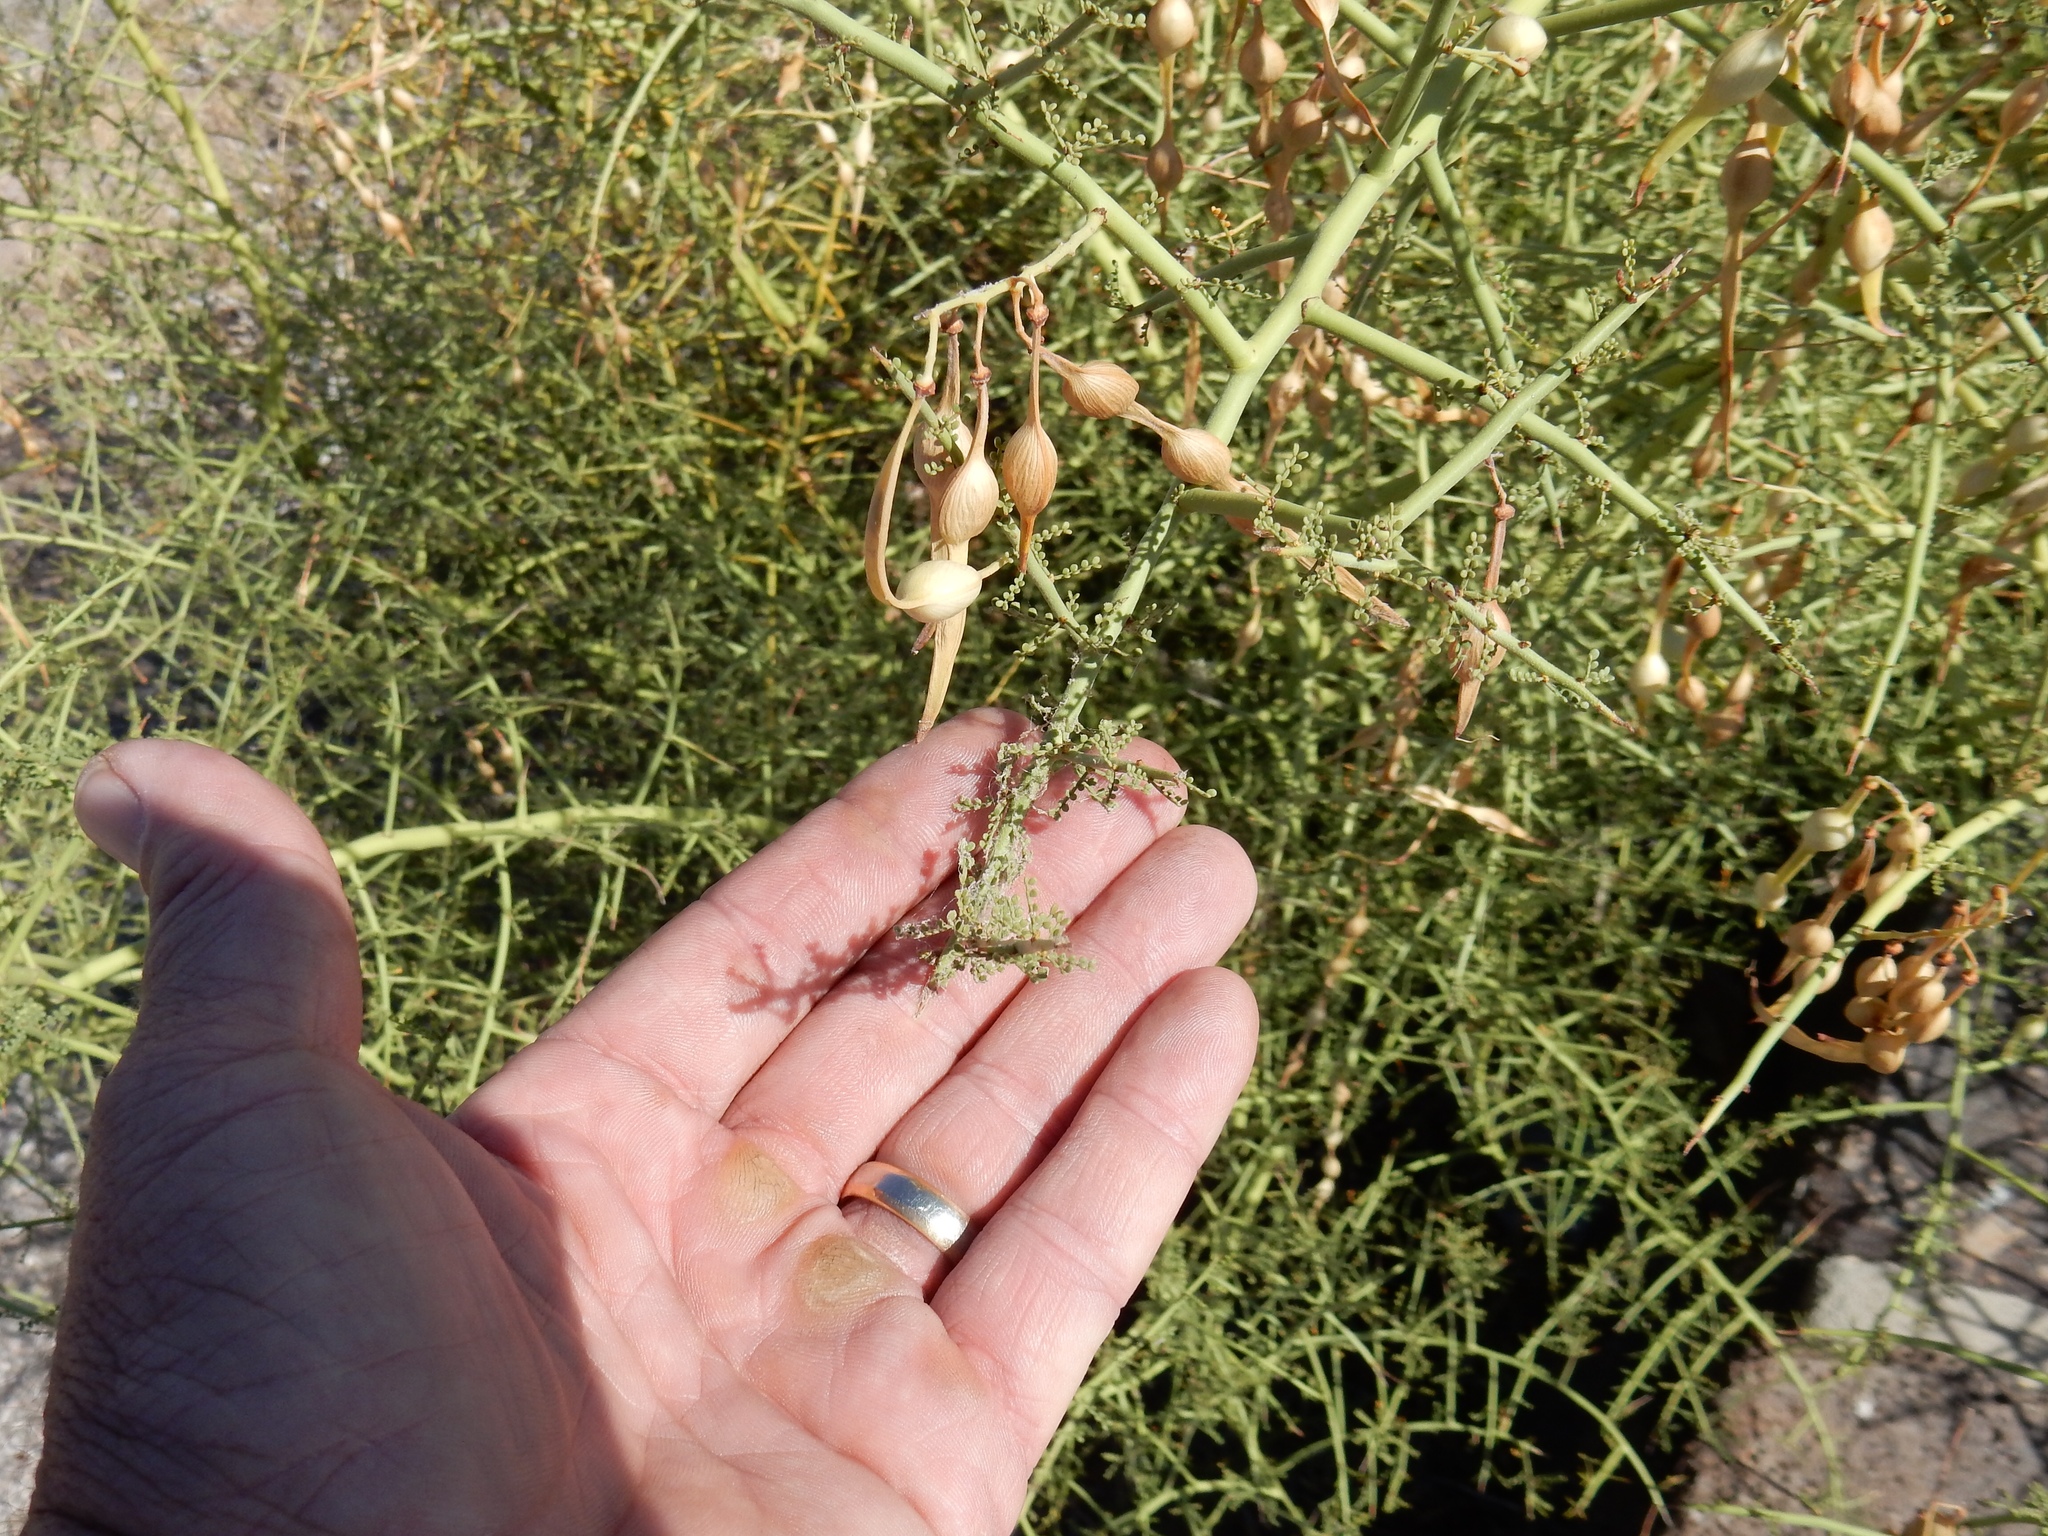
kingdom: Plantae
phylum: Tracheophyta
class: Magnoliopsida
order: Fabales
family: Fabaceae
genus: Parkinsonia
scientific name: Parkinsonia microphylla
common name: Yellow paloverde
